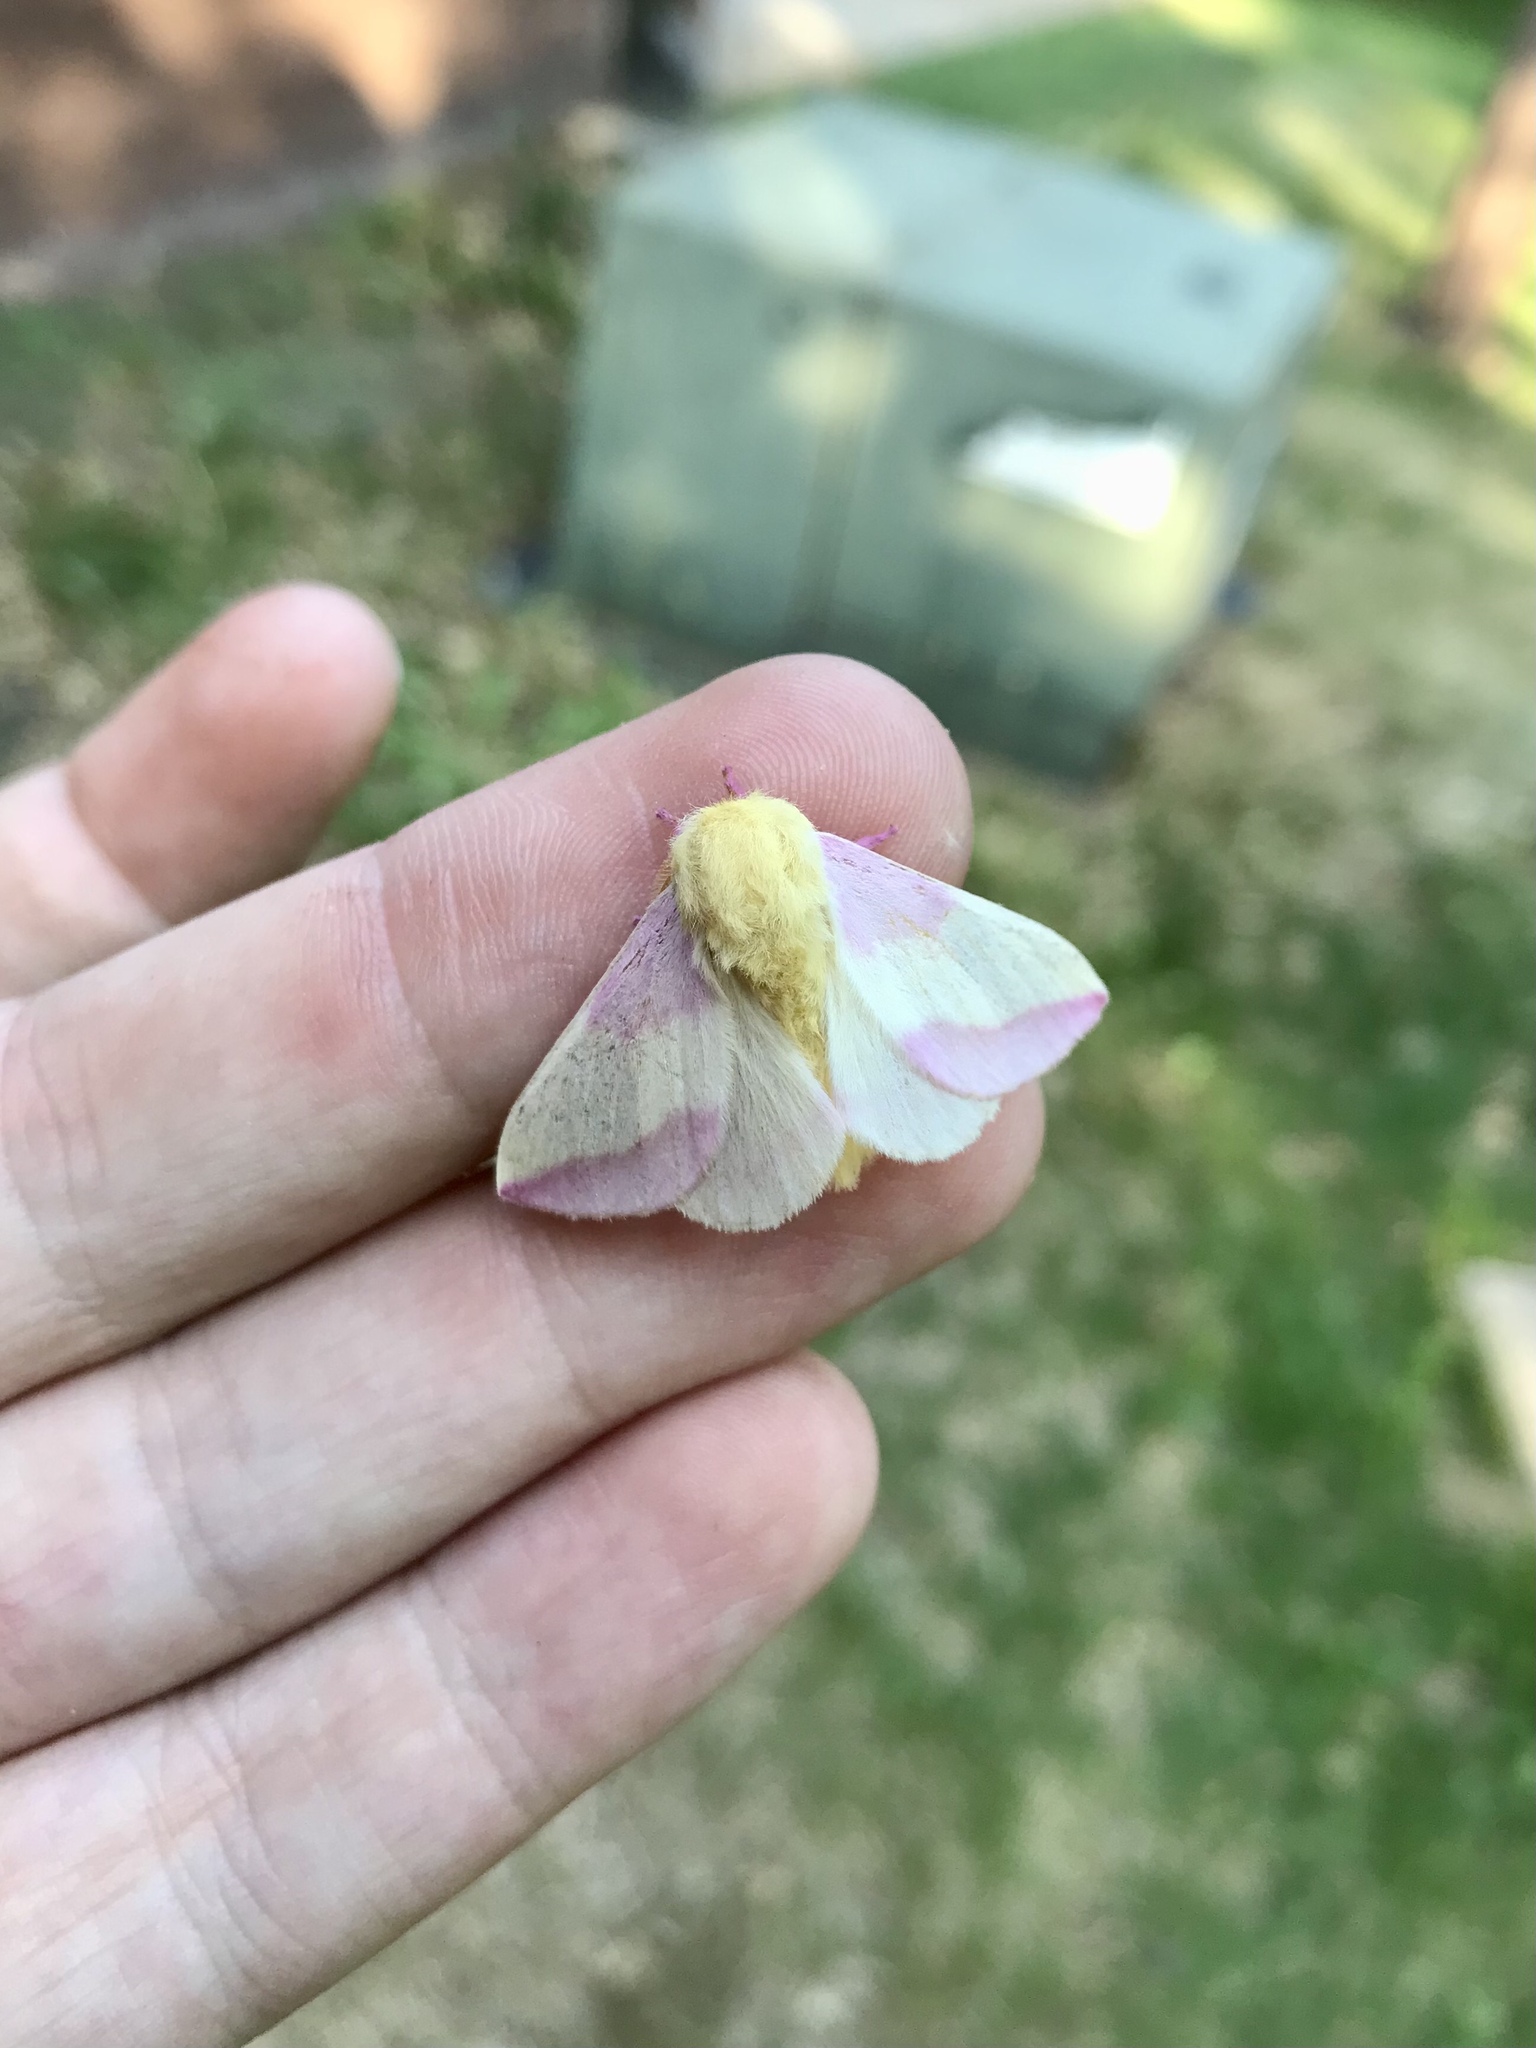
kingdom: Animalia
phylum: Arthropoda
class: Insecta
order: Lepidoptera
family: Saturniidae
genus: Dryocampa
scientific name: Dryocampa rubicunda
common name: Rosy maple moth
